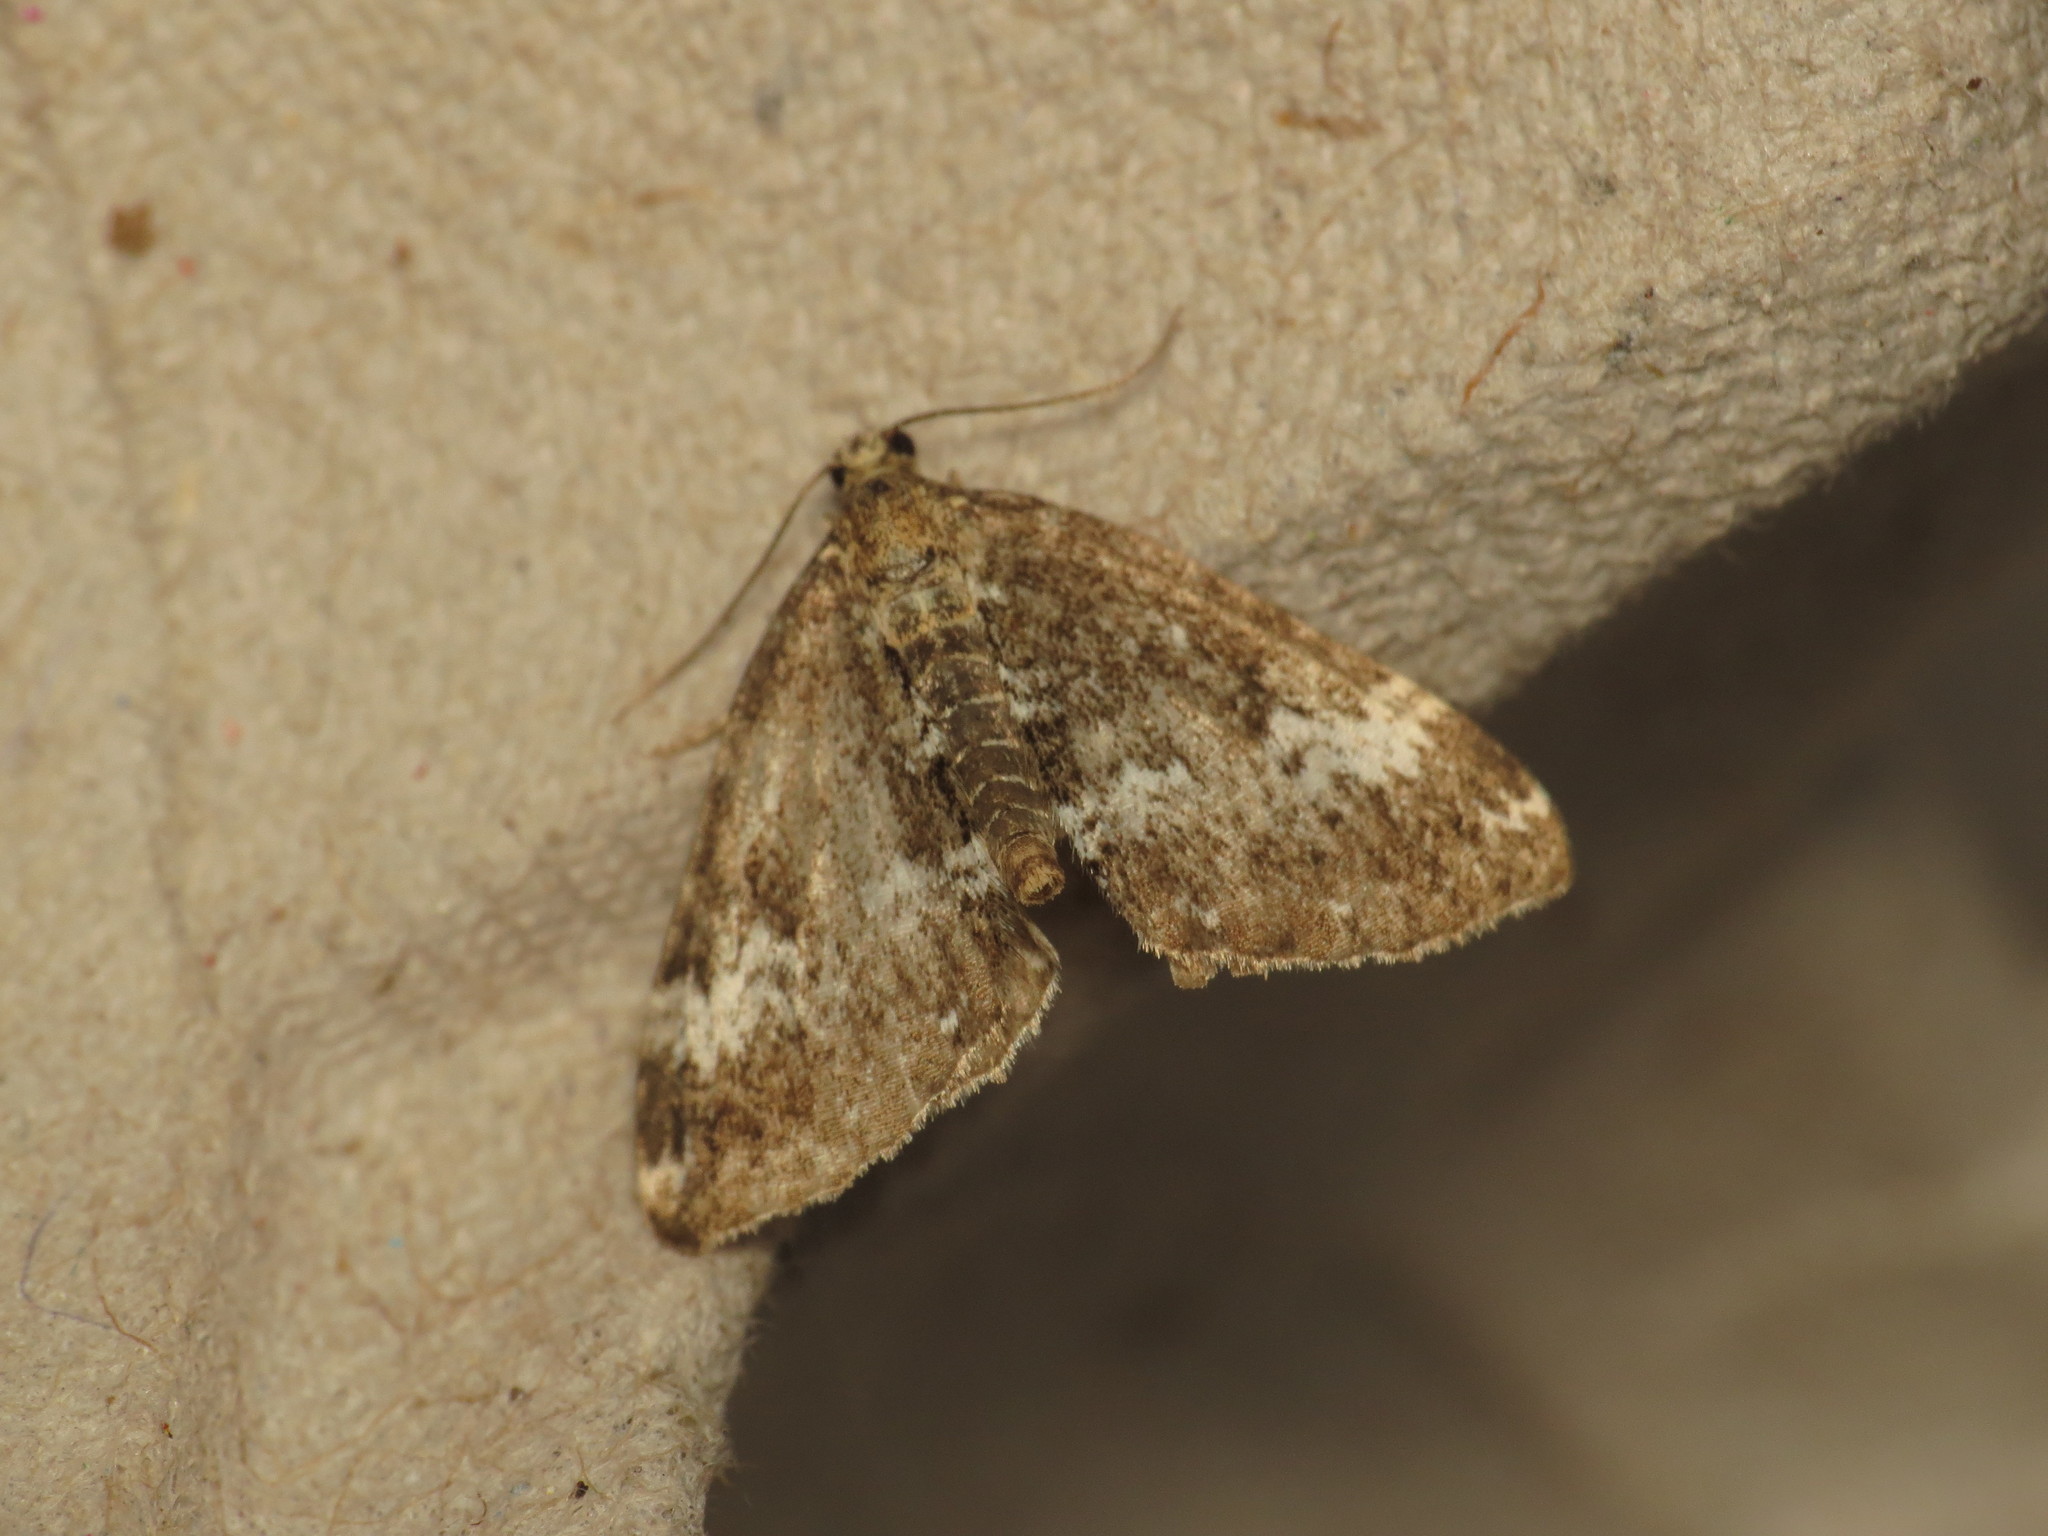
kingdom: Animalia
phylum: Arthropoda
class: Insecta
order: Lepidoptera
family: Geometridae
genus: Perizoma
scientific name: Perizoma alchemillata
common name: Small rivulet
